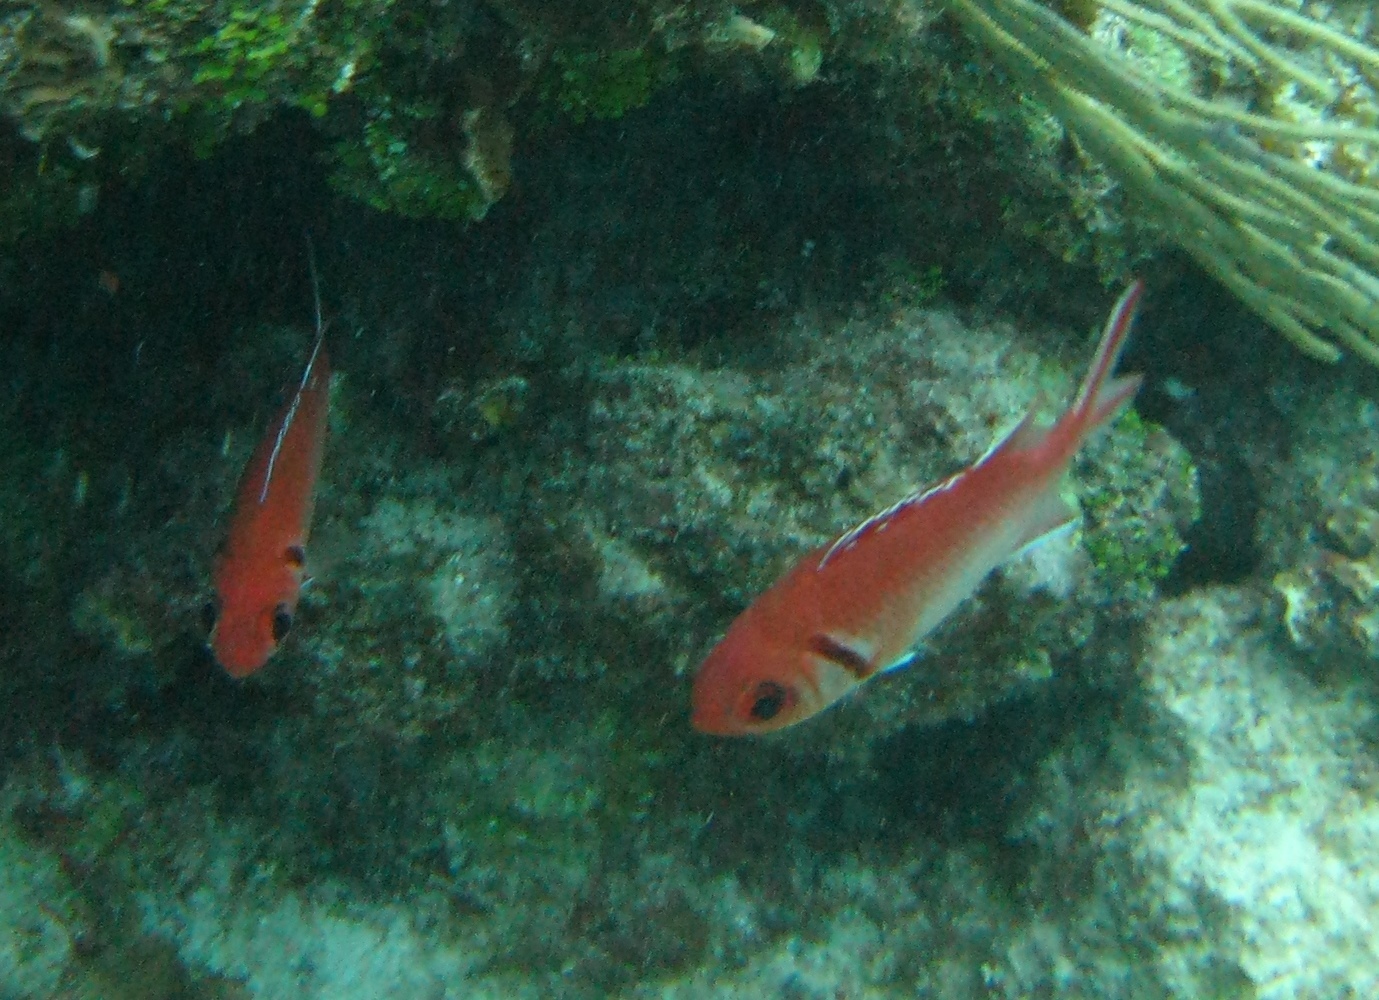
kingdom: Animalia
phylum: Chordata
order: Beryciformes
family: Holocentridae
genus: Myripristis
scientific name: Myripristis jacobus
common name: Blackbar soldierfish
